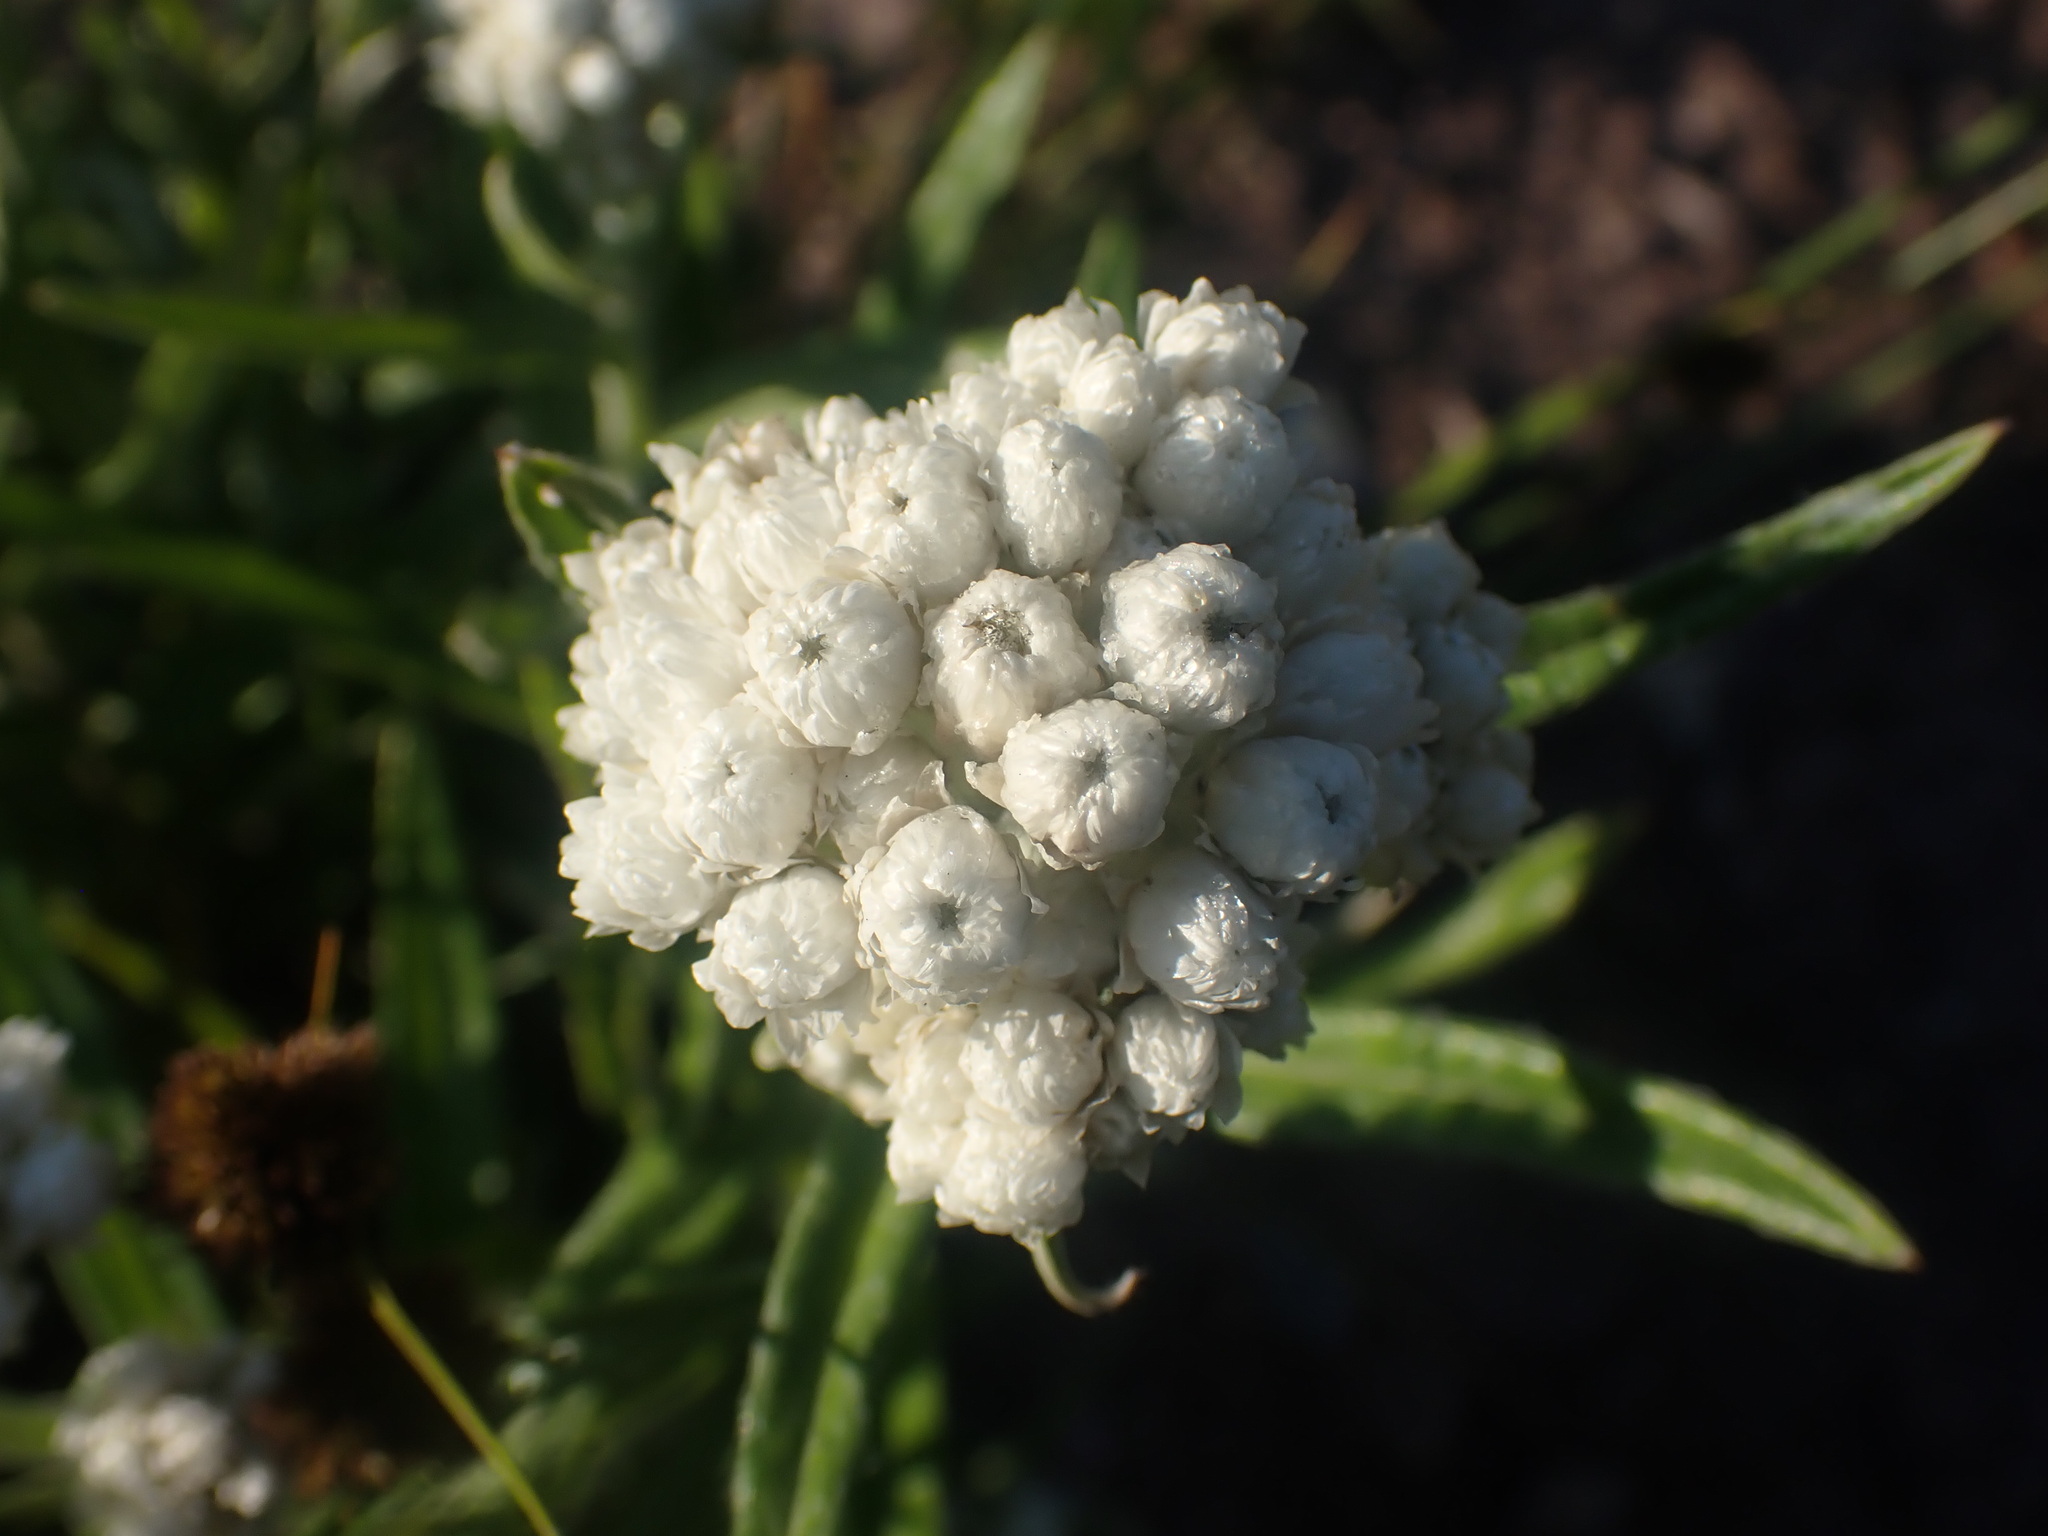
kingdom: Plantae
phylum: Tracheophyta
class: Magnoliopsida
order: Asterales
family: Asteraceae
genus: Anaphalis
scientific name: Anaphalis margaritacea
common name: Pearly everlasting
